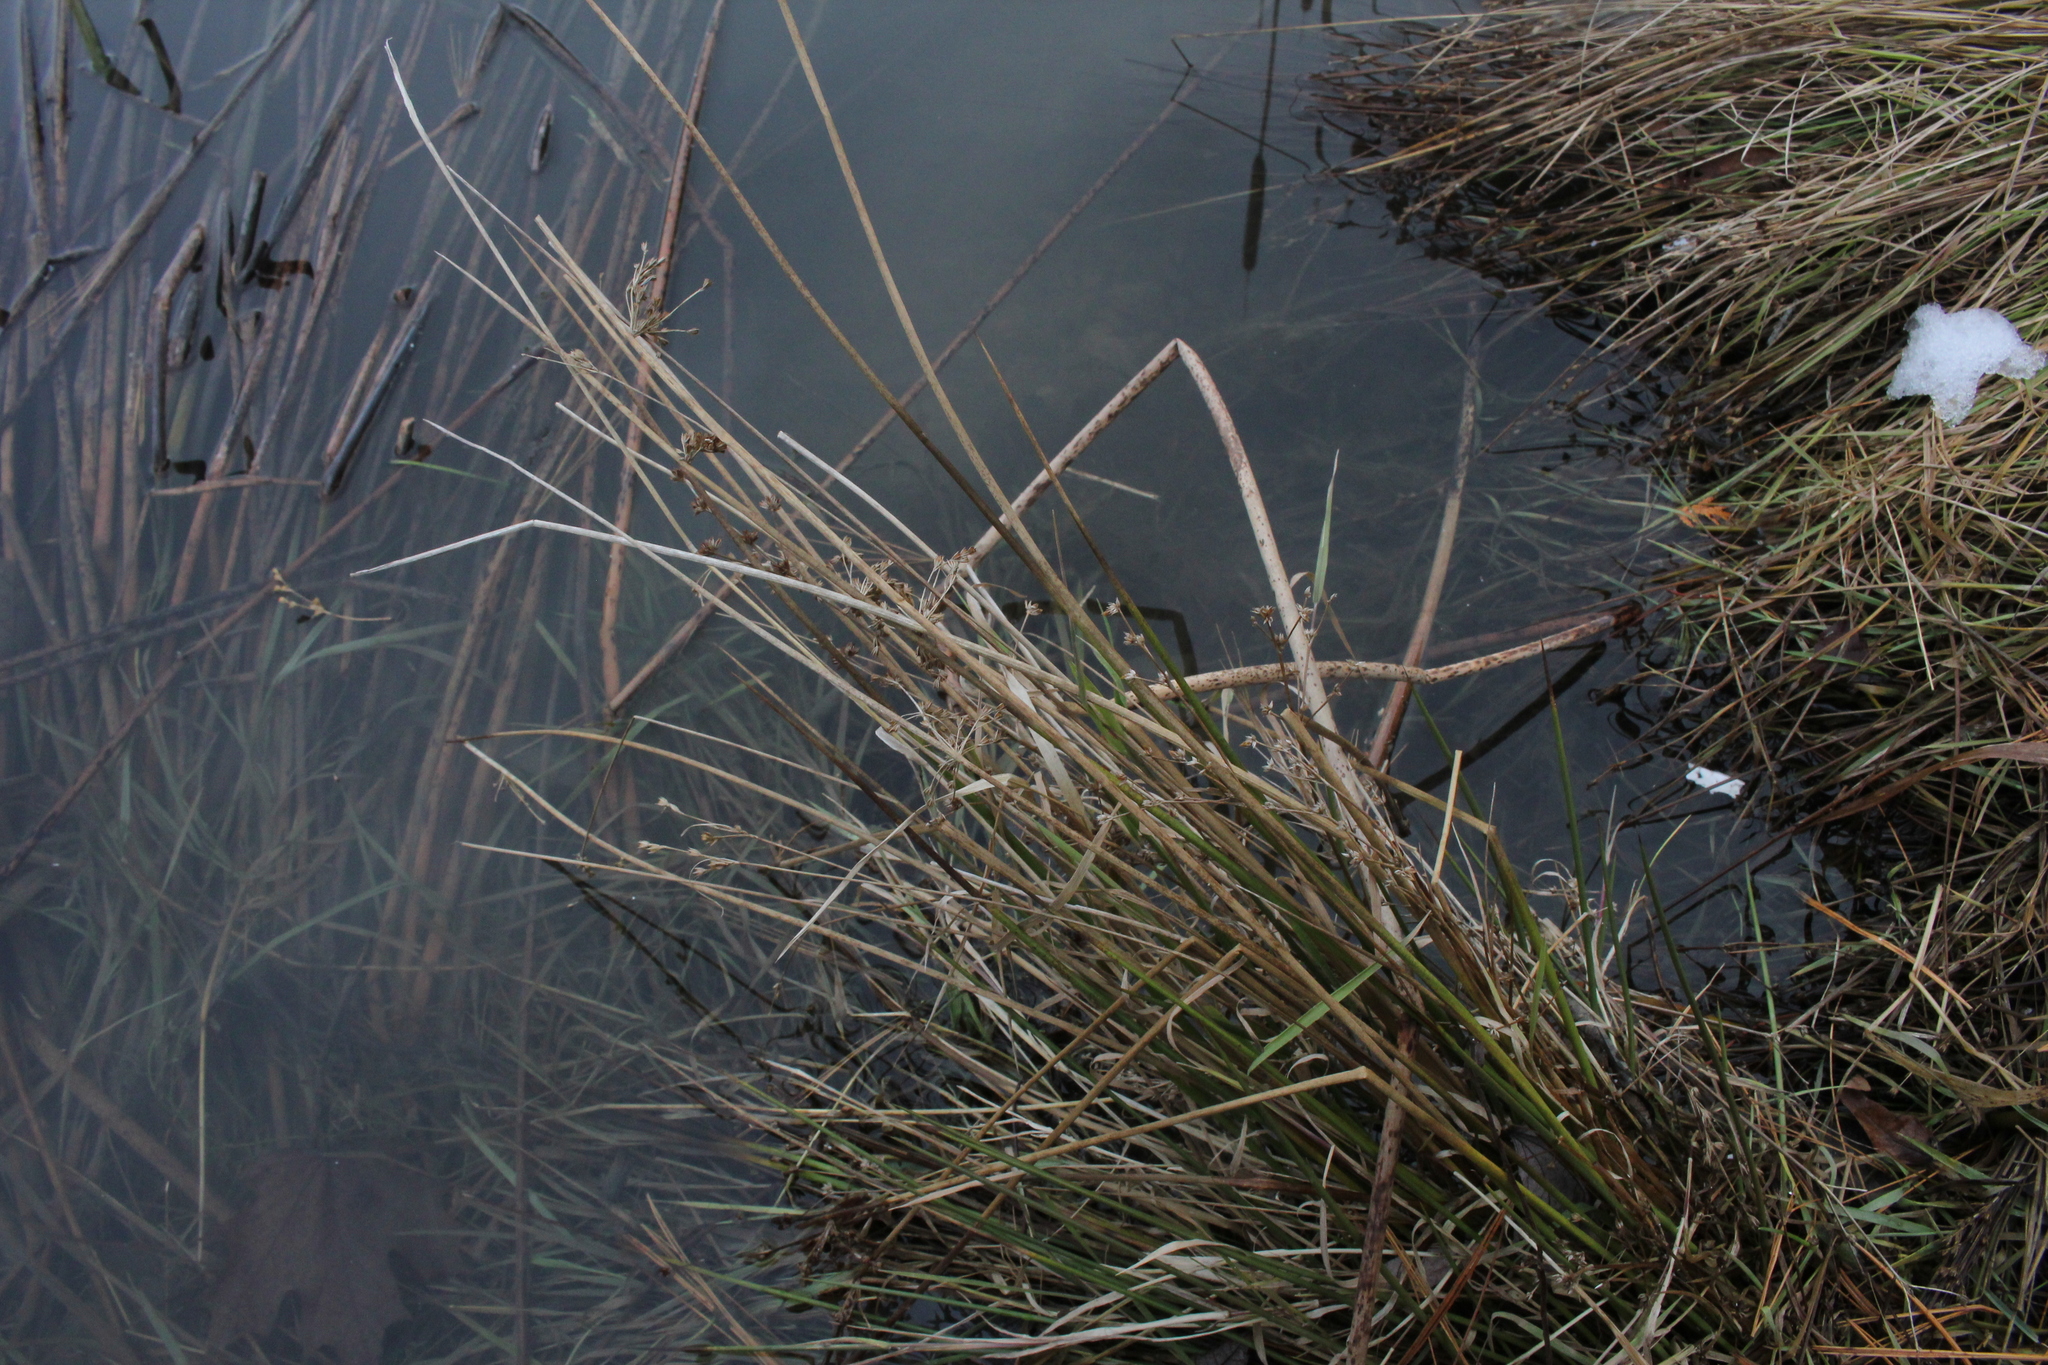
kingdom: Plantae
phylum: Tracheophyta
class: Liliopsida
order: Poales
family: Juncaceae
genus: Juncus
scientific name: Juncus effusus
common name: Soft rush
